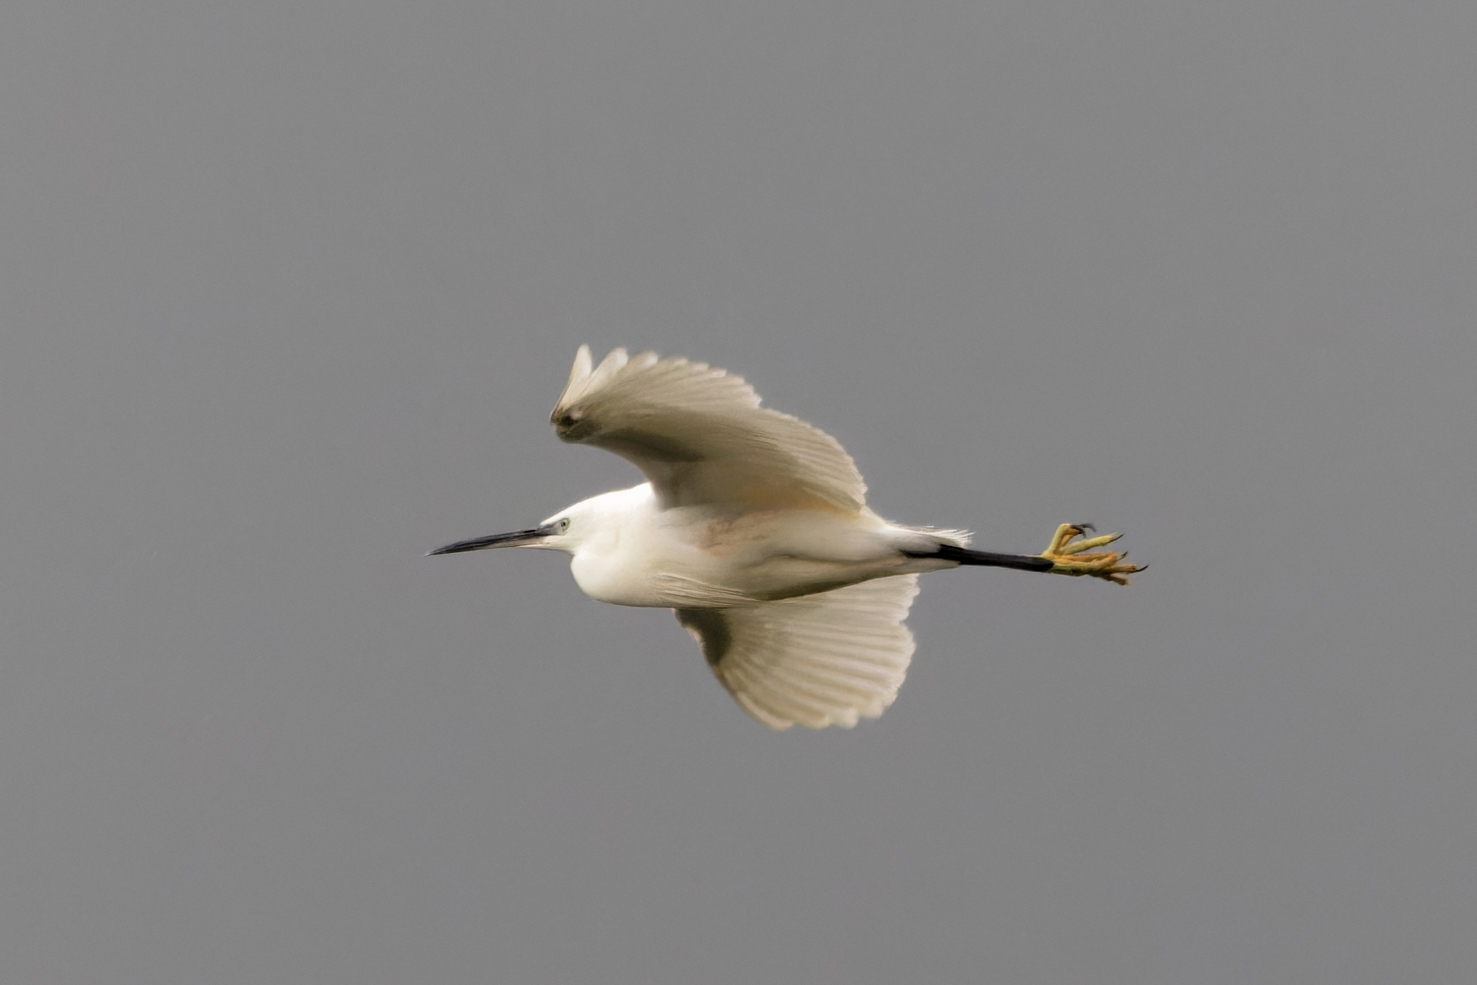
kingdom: Animalia
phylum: Chordata
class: Aves
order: Pelecaniformes
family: Ardeidae
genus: Egretta
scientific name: Egretta garzetta
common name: Little egret
